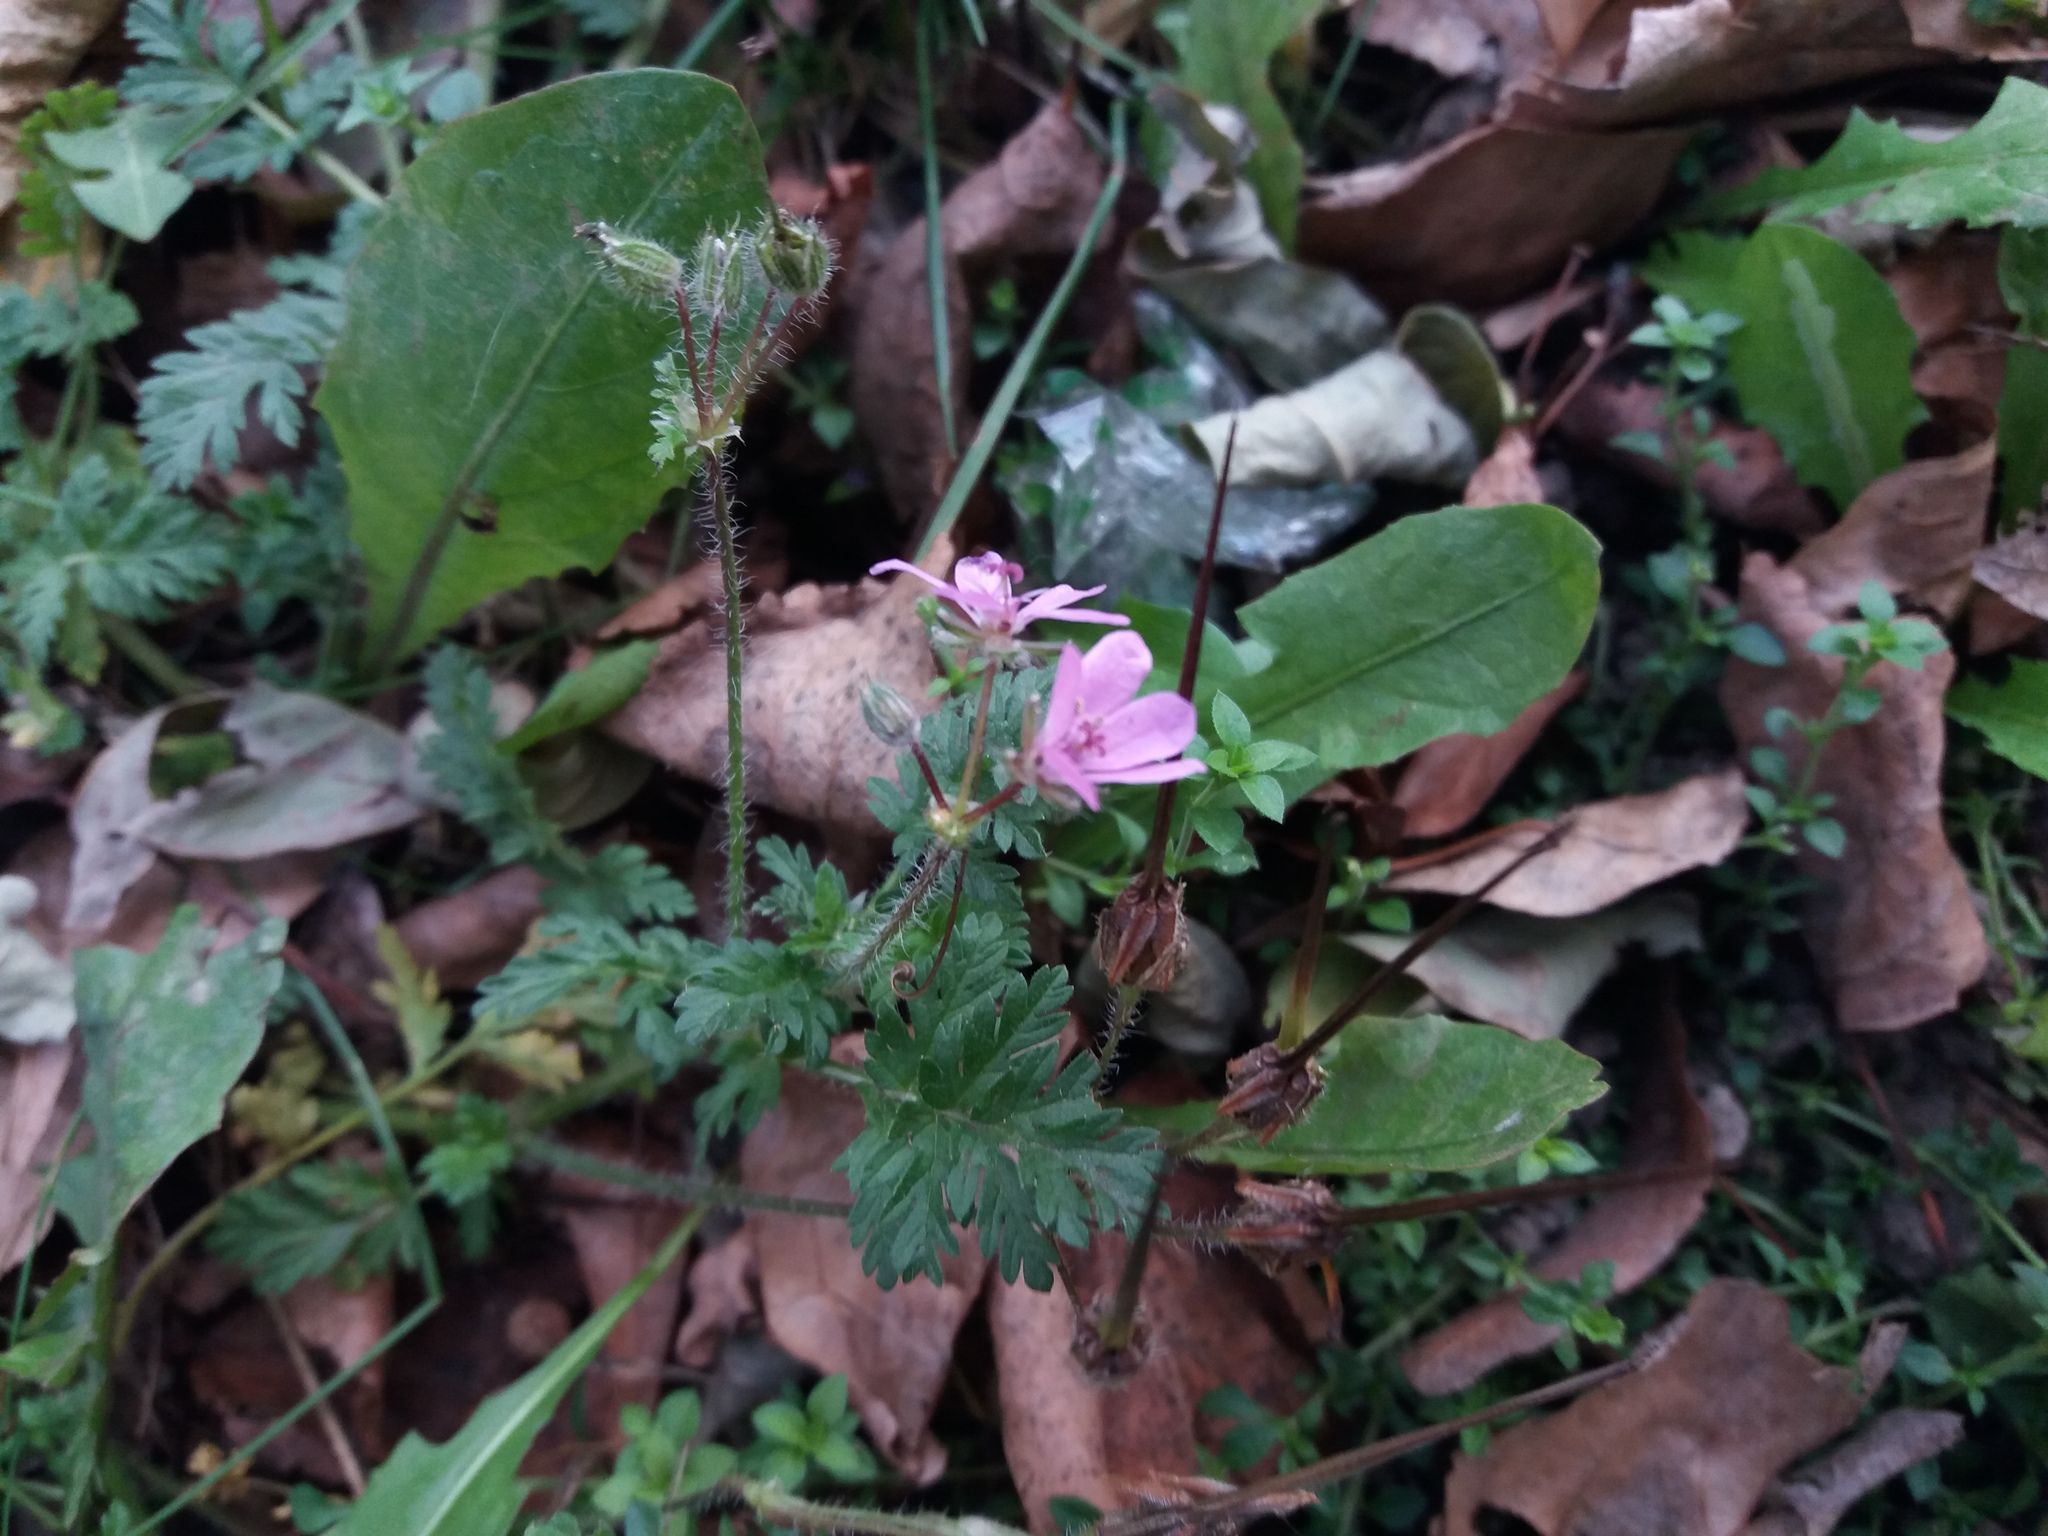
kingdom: Plantae
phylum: Tracheophyta
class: Magnoliopsida
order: Geraniales
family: Geraniaceae
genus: Erodium
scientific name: Erodium cicutarium
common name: Common stork's-bill
